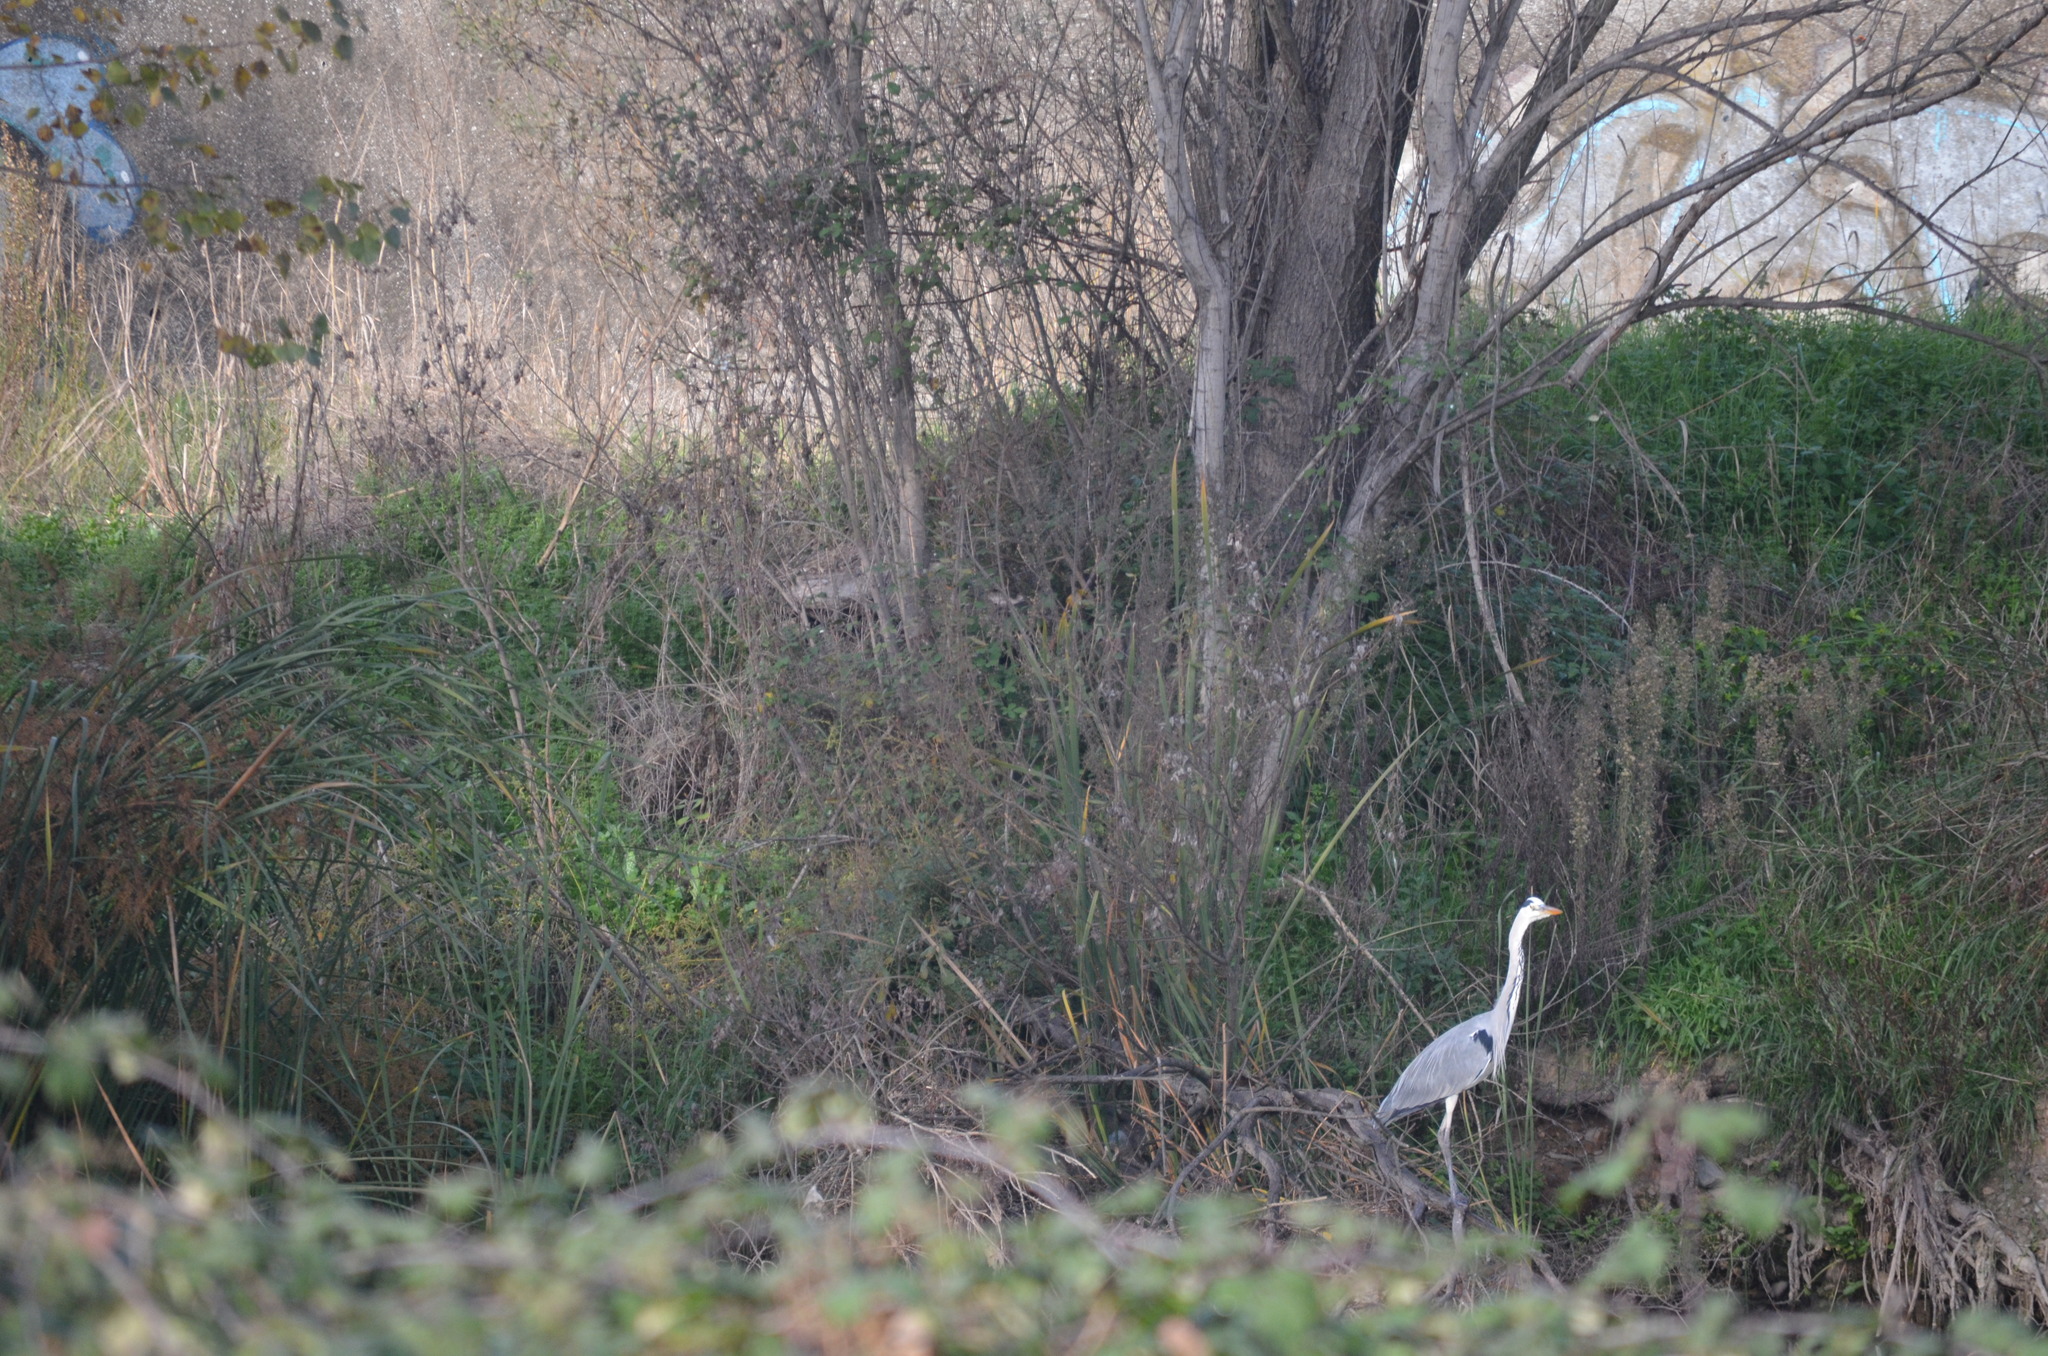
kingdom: Animalia
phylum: Chordata
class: Aves
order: Pelecaniformes
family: Ardeidae
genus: Ardea
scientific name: Ardea cinerea
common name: Grey heron
